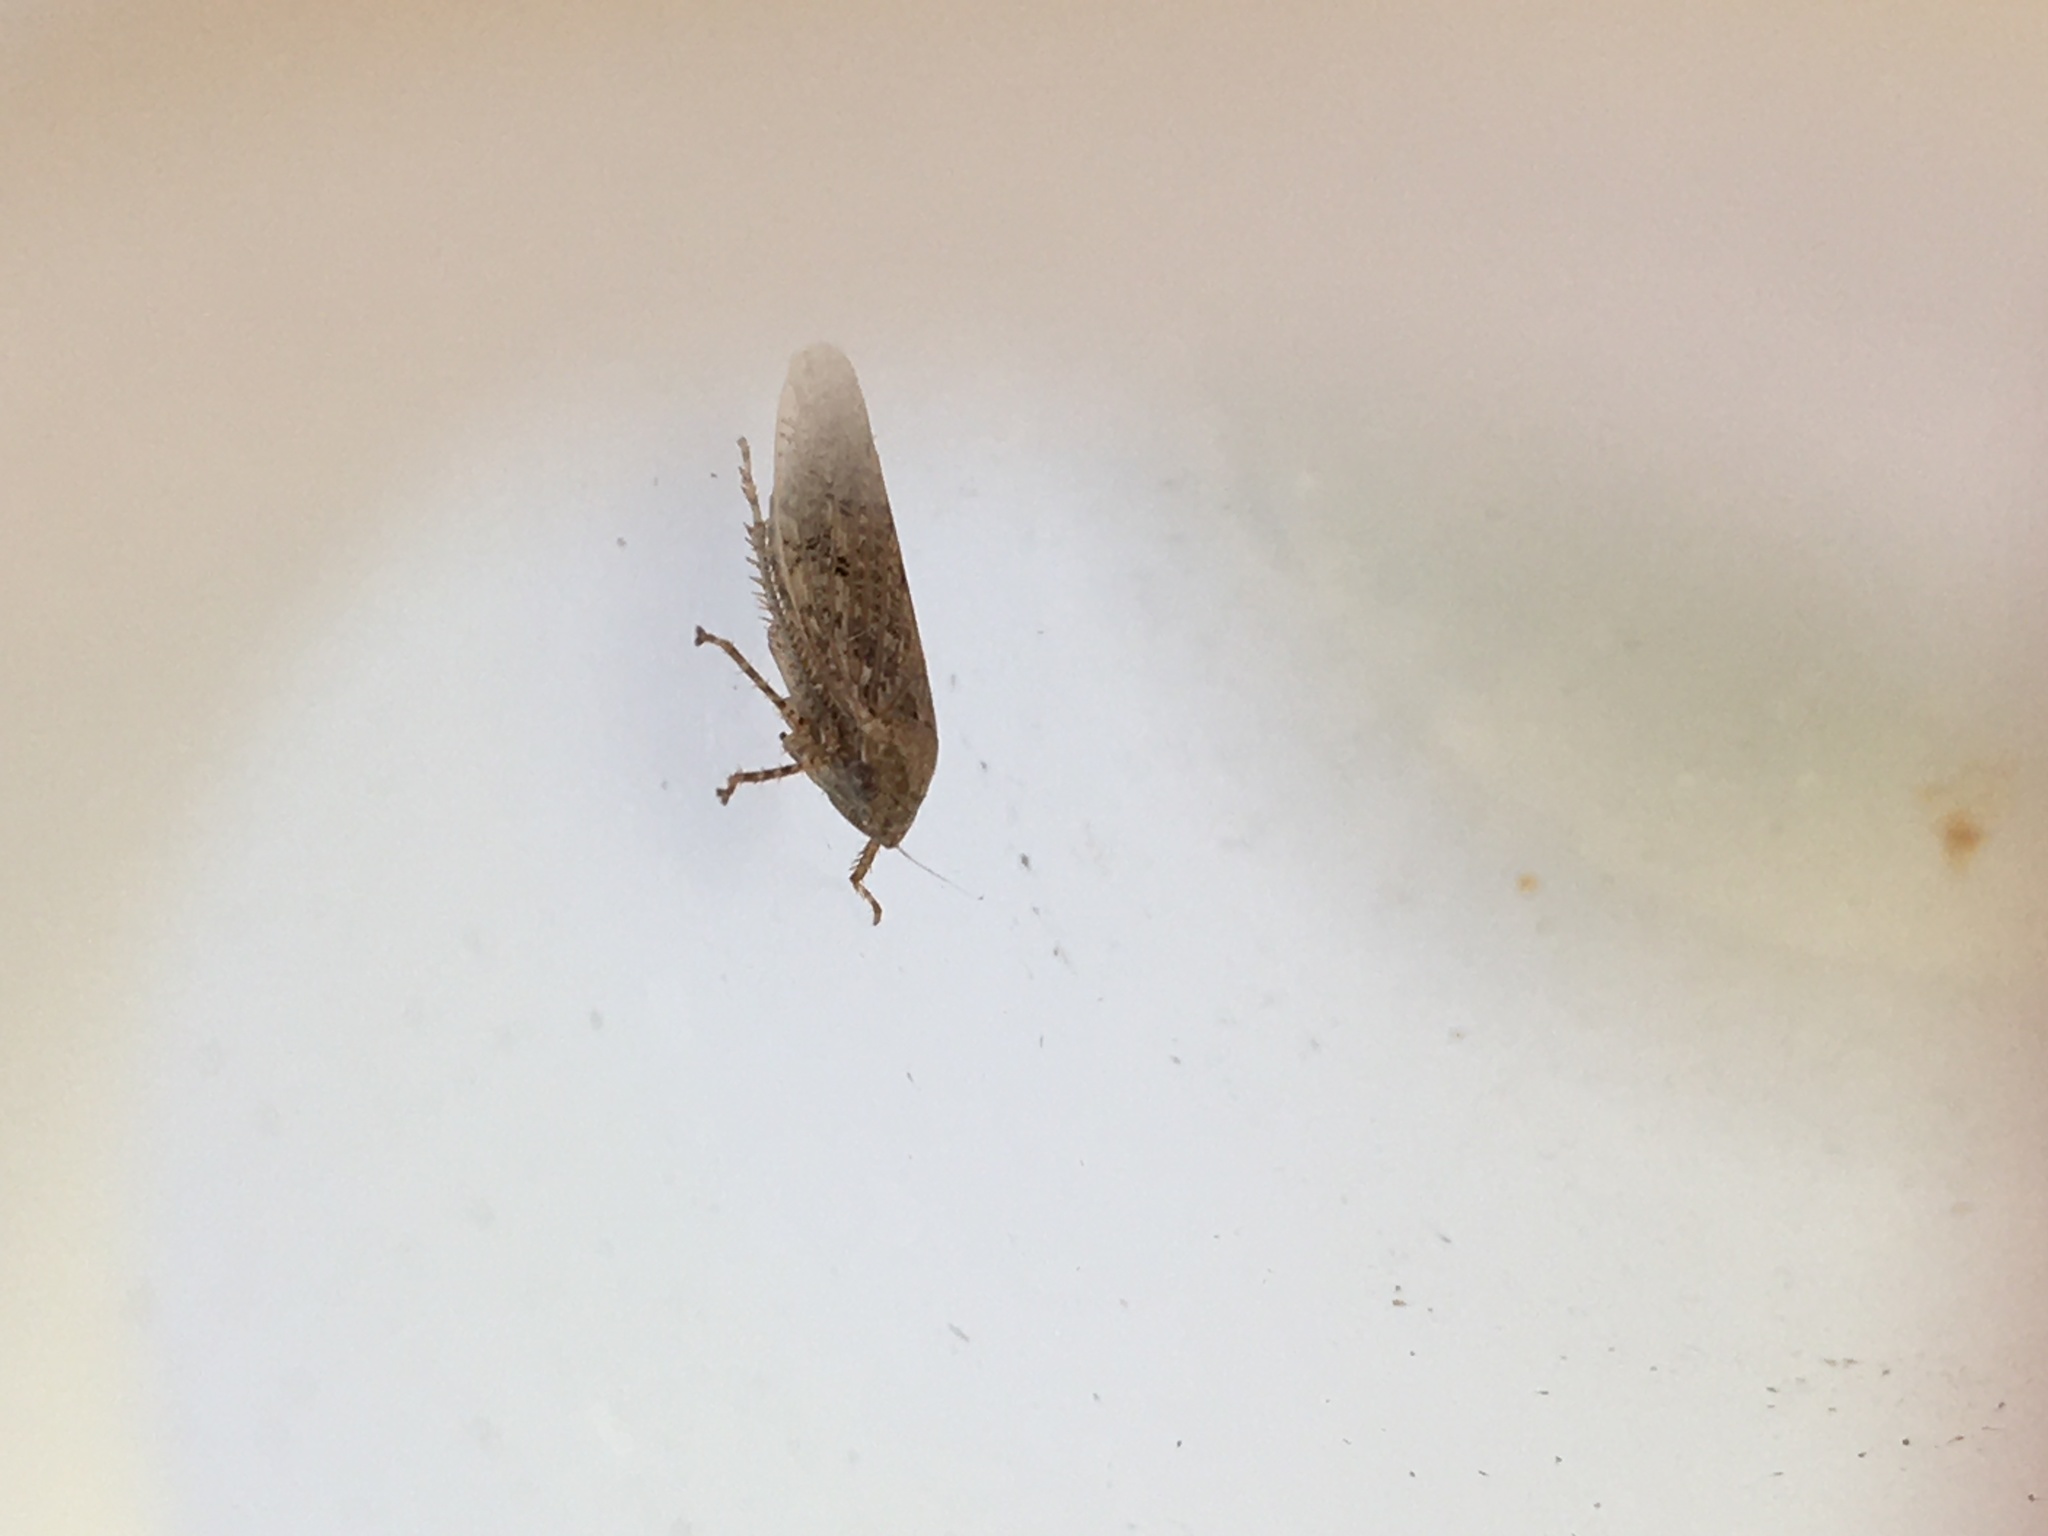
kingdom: Animalia
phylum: Arthropoda
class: Insecta
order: Hemiptera
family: Cicadellidae
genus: Curtara
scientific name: Curtara insularis
